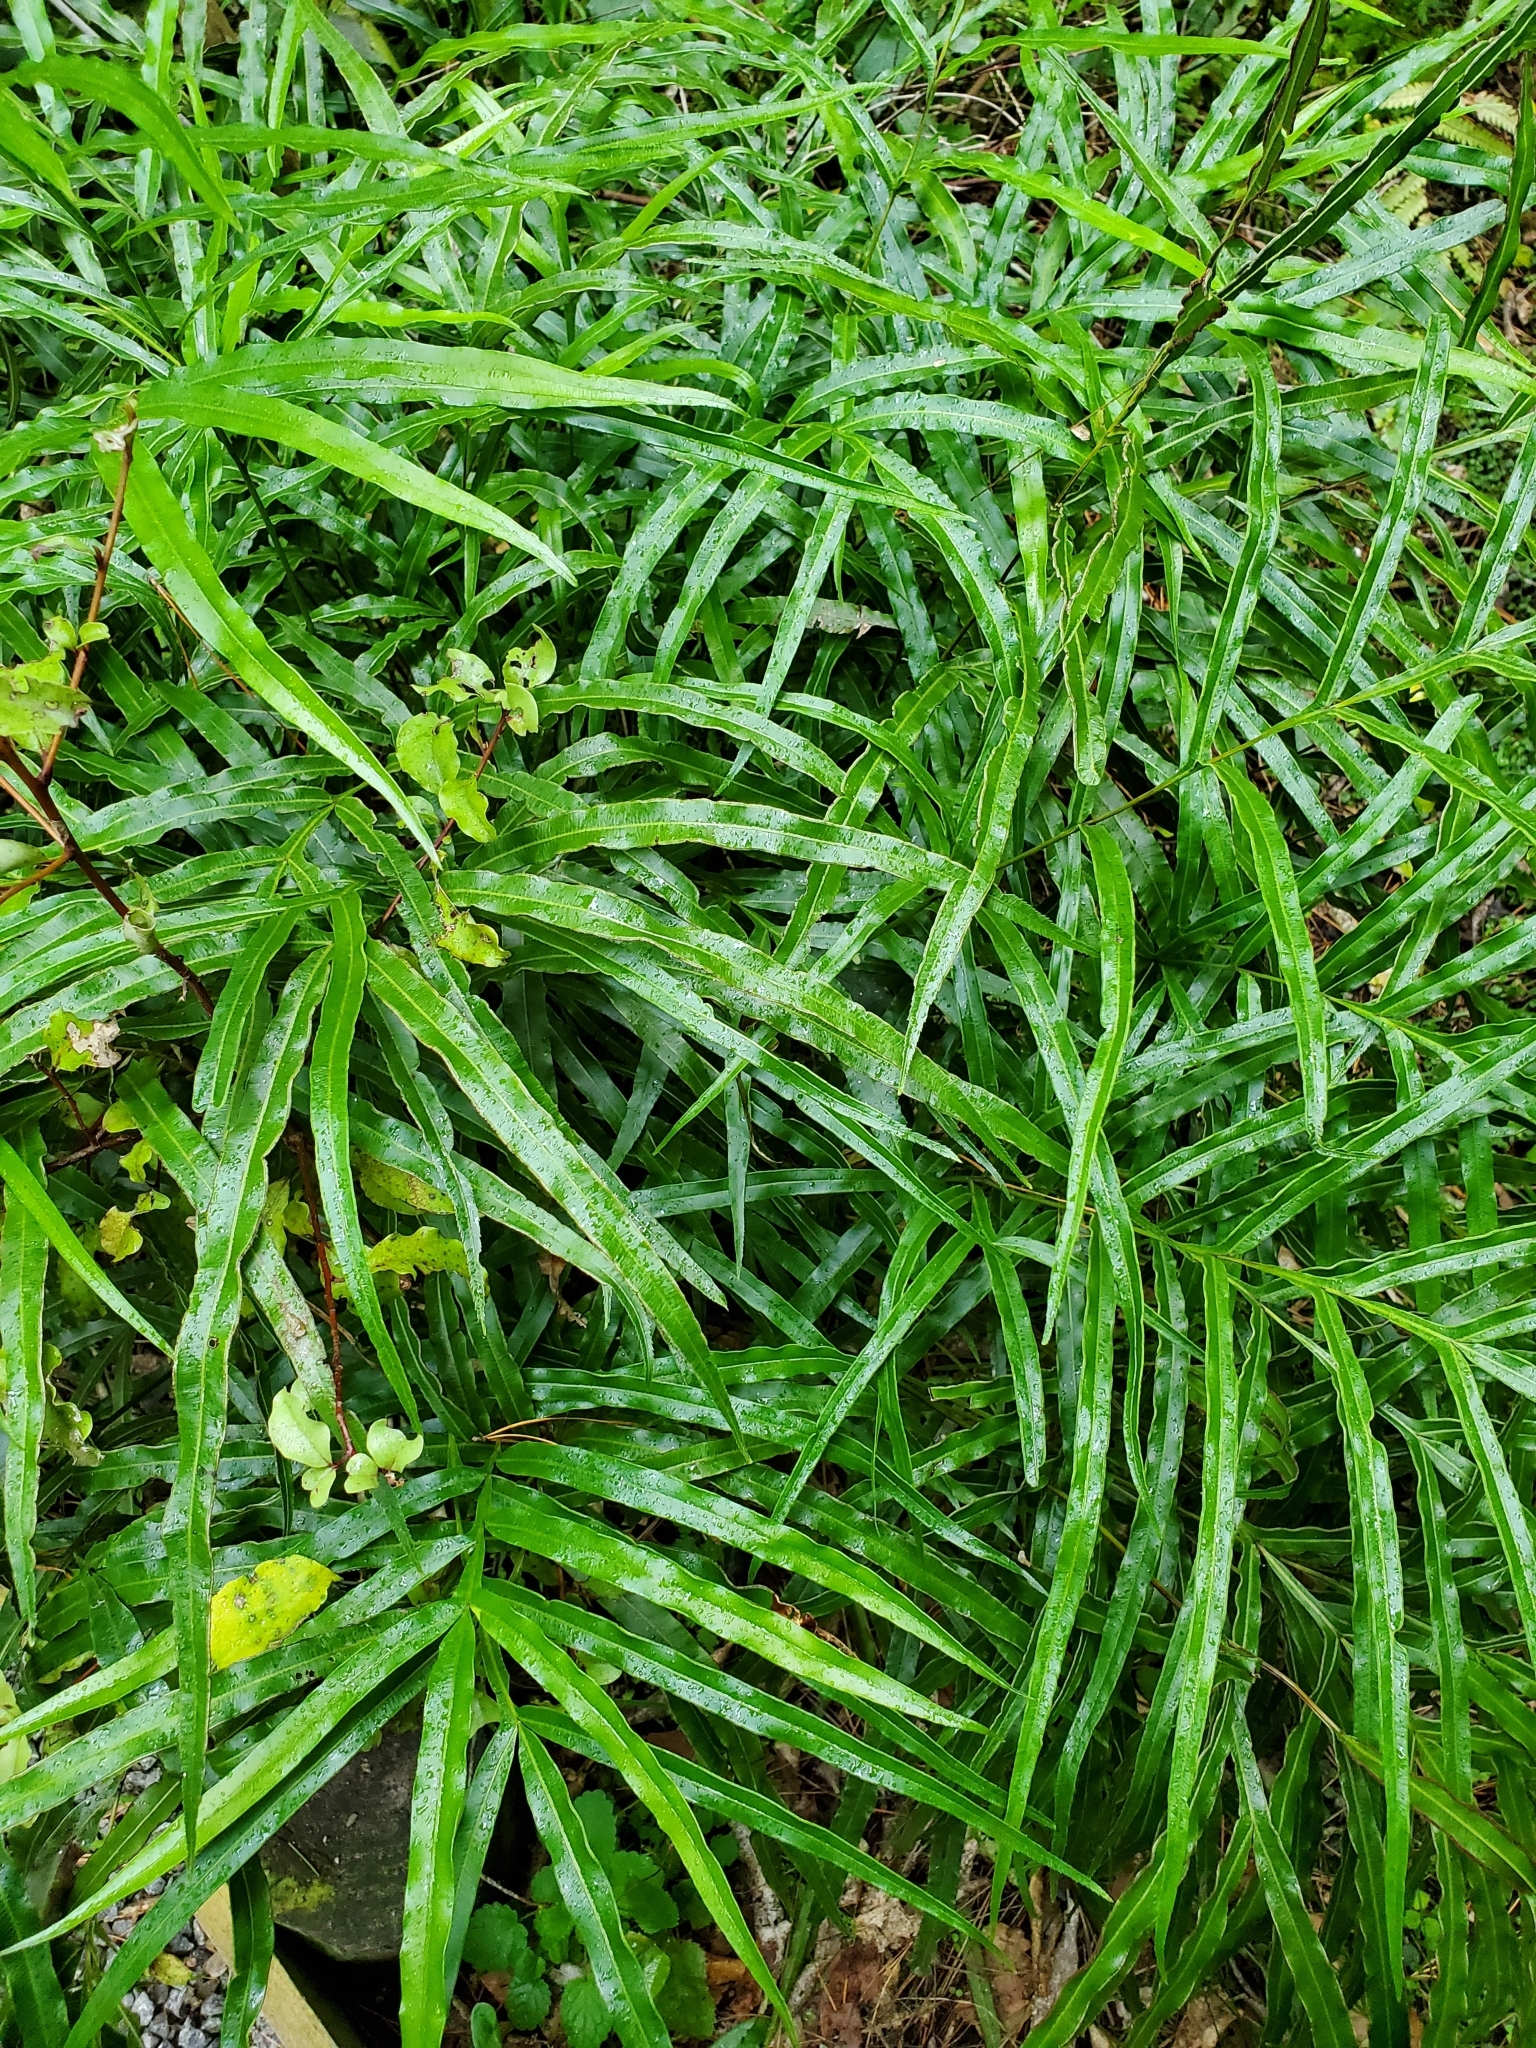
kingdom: Plantae
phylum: Tracheophyta
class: Polypodiopsida
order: Polypodiales
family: Pteridaceae
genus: Pteris
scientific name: Pteris cretica
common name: Ribbon fern
